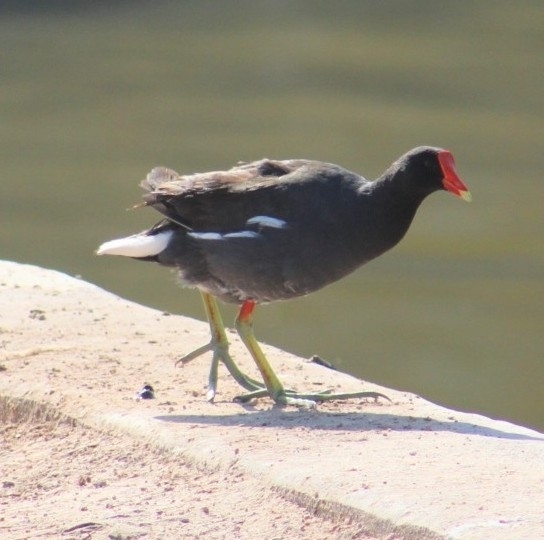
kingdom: Animalia
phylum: Chordata
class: Aves
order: Gruiformes
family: Rallidae
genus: Gallinula
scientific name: Gallinula chloropus
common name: Common moorhen
